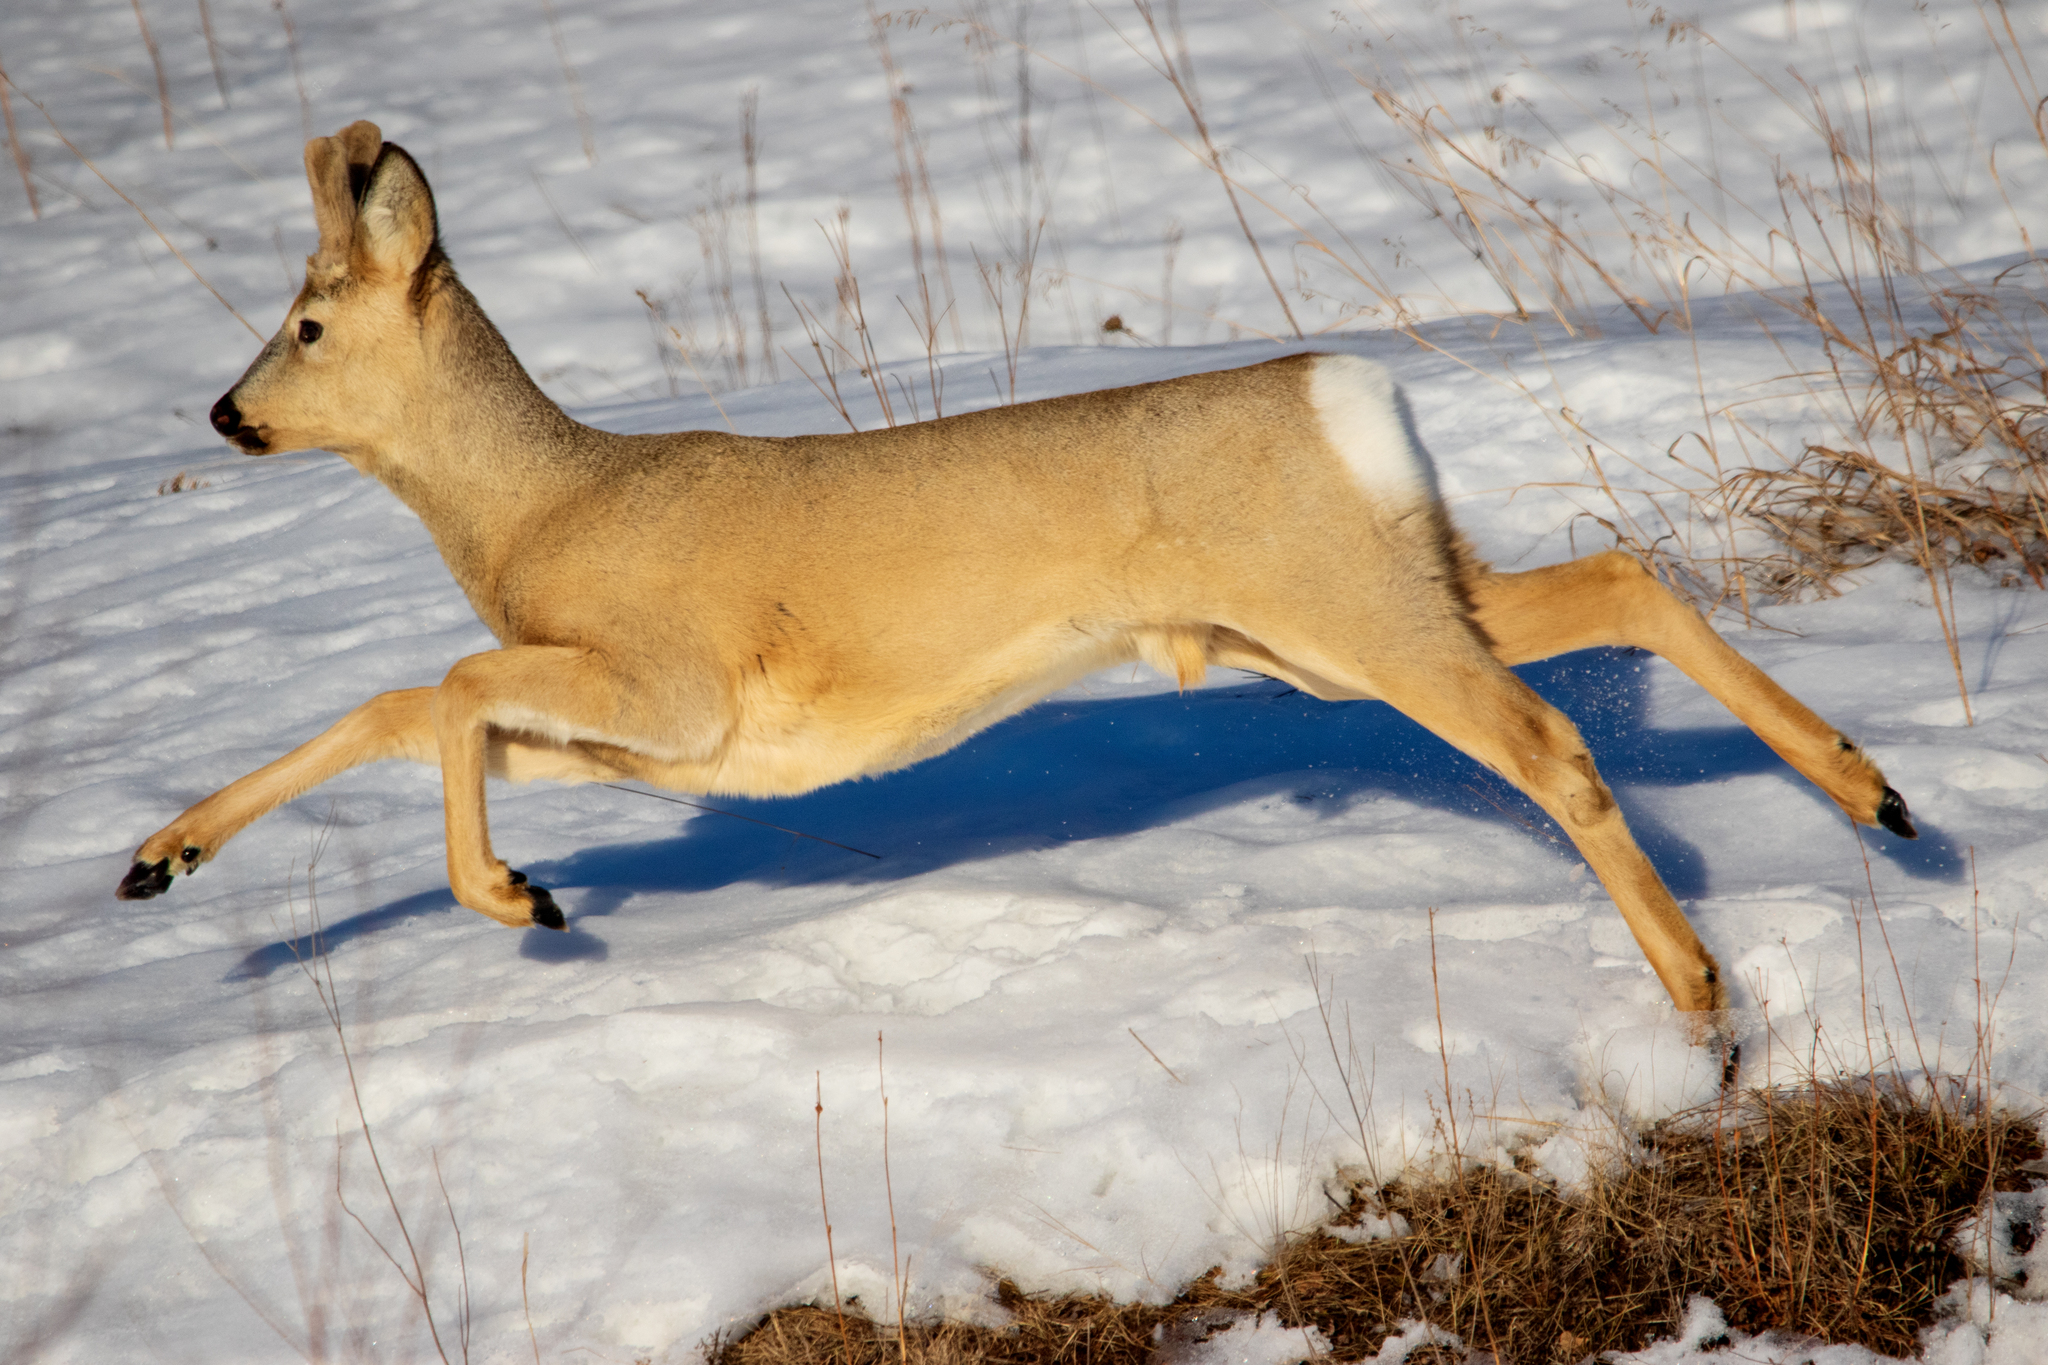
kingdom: Animalia
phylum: Chordata
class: Mammalia
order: Artiodactyla
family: Cervidae
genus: Capreolus
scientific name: Capreolus pygargus
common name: Siberian roe
